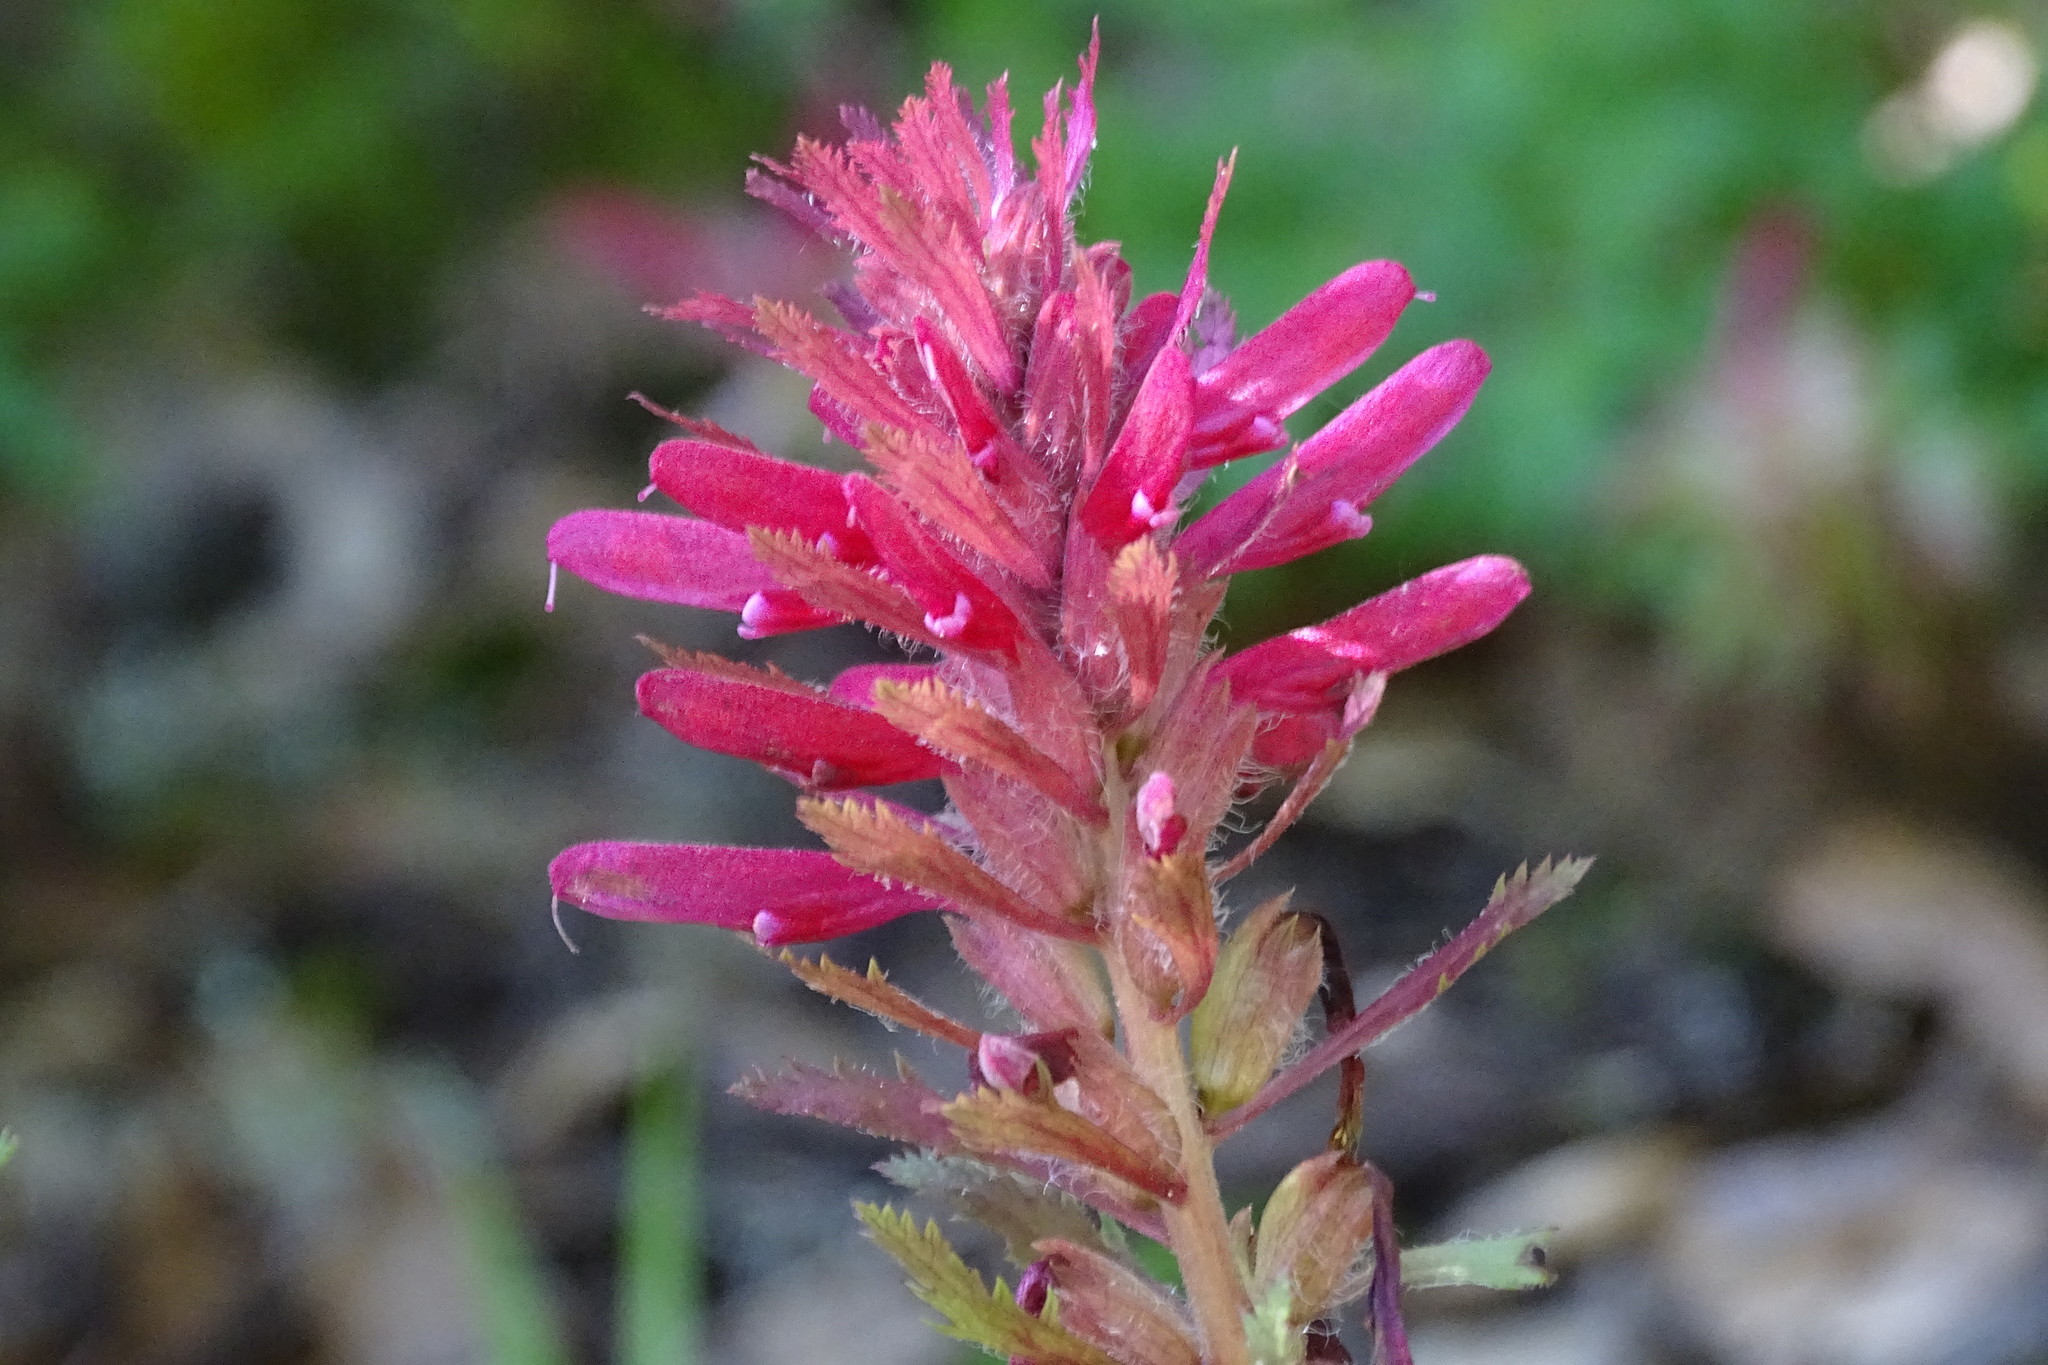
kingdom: Plantae
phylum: Tracheophyta
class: Magnoliopsida
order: Lamiales
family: Orobanchaceae
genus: Pedicularis
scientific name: Pedicularis densiflora
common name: Indian warrior
